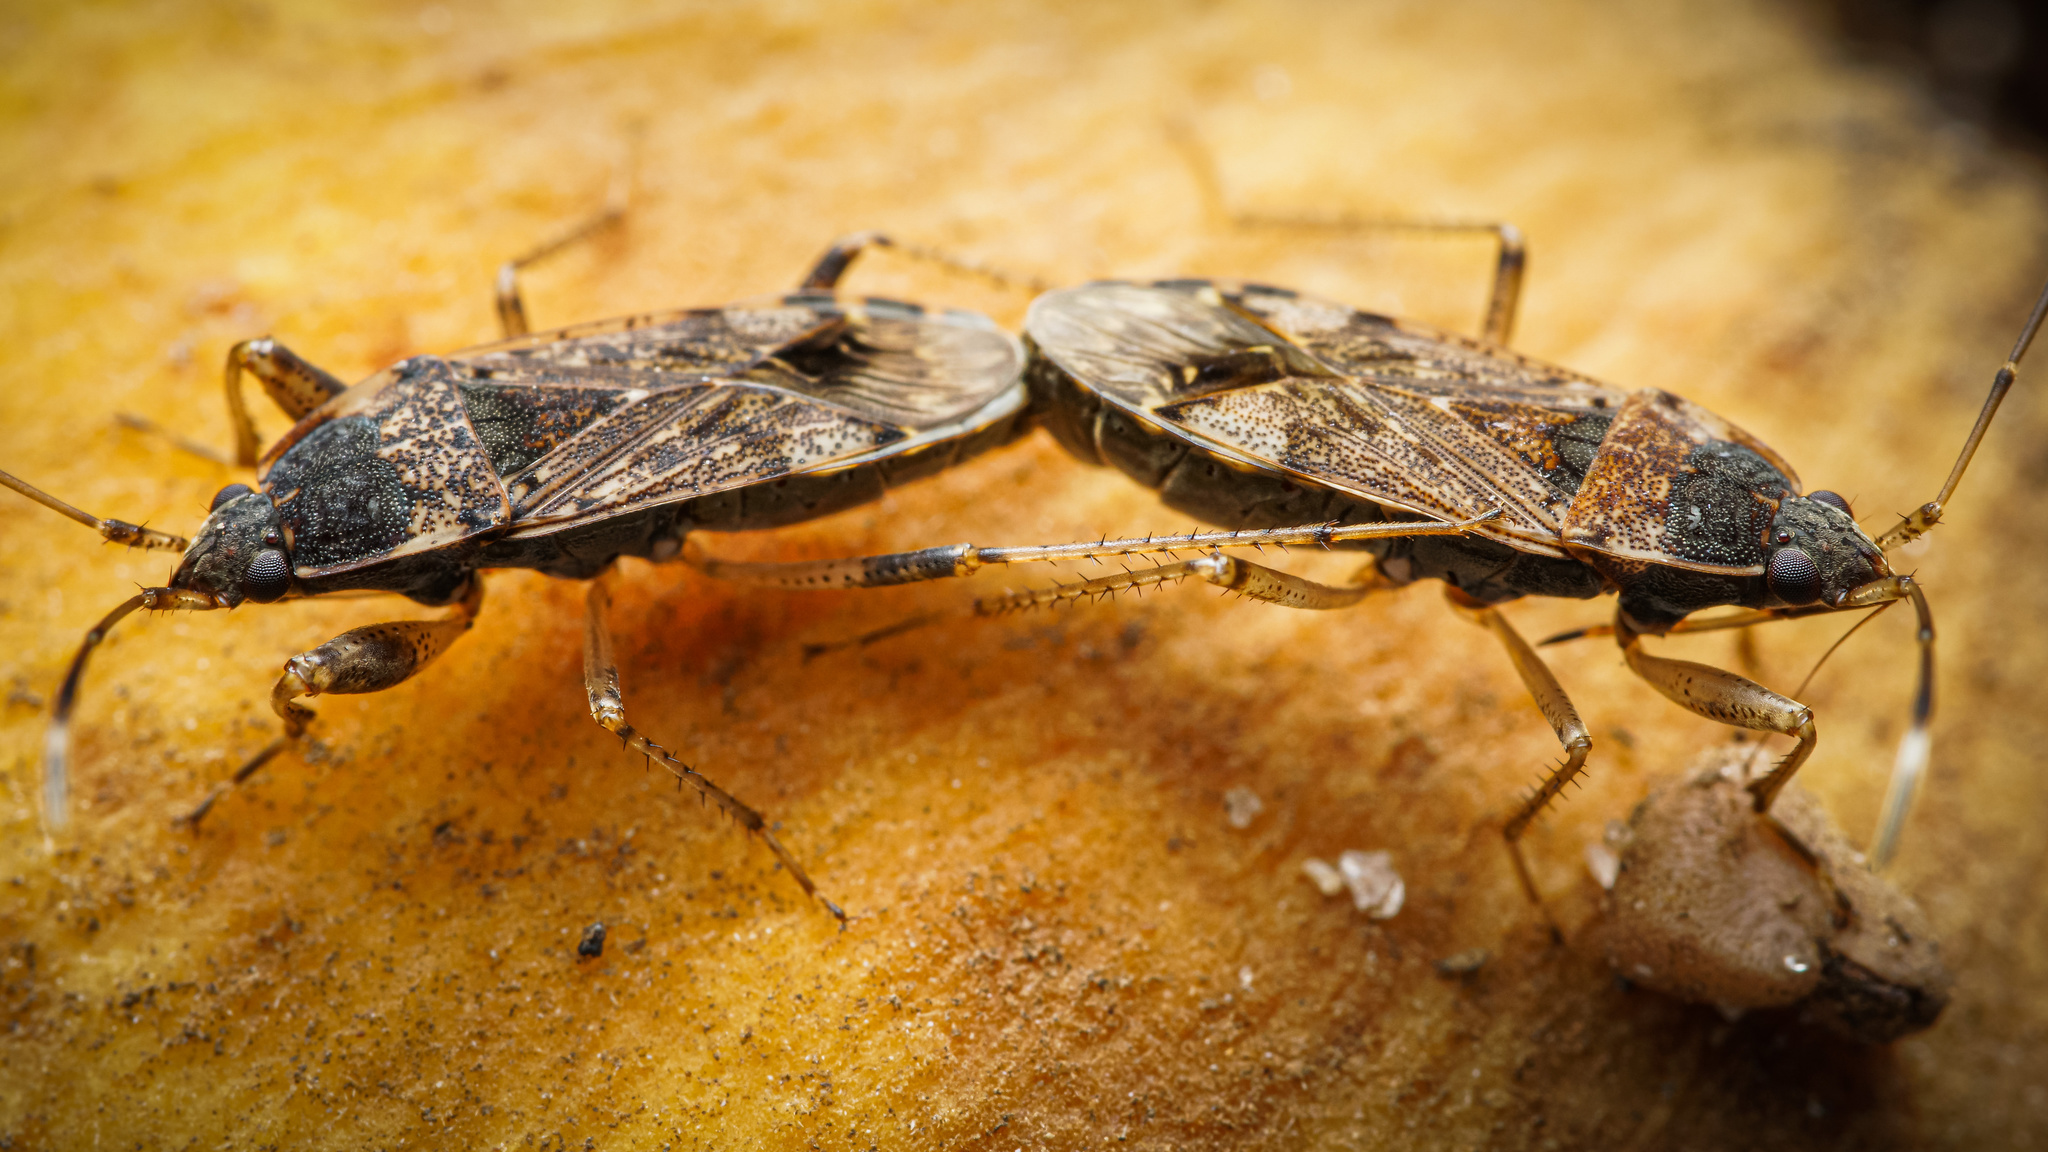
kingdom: Animalia
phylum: Arthropoda
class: Insecta
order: Hemiptera
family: Rhyparochromidae
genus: Elasmolomus
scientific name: Elasmolomus pallens
